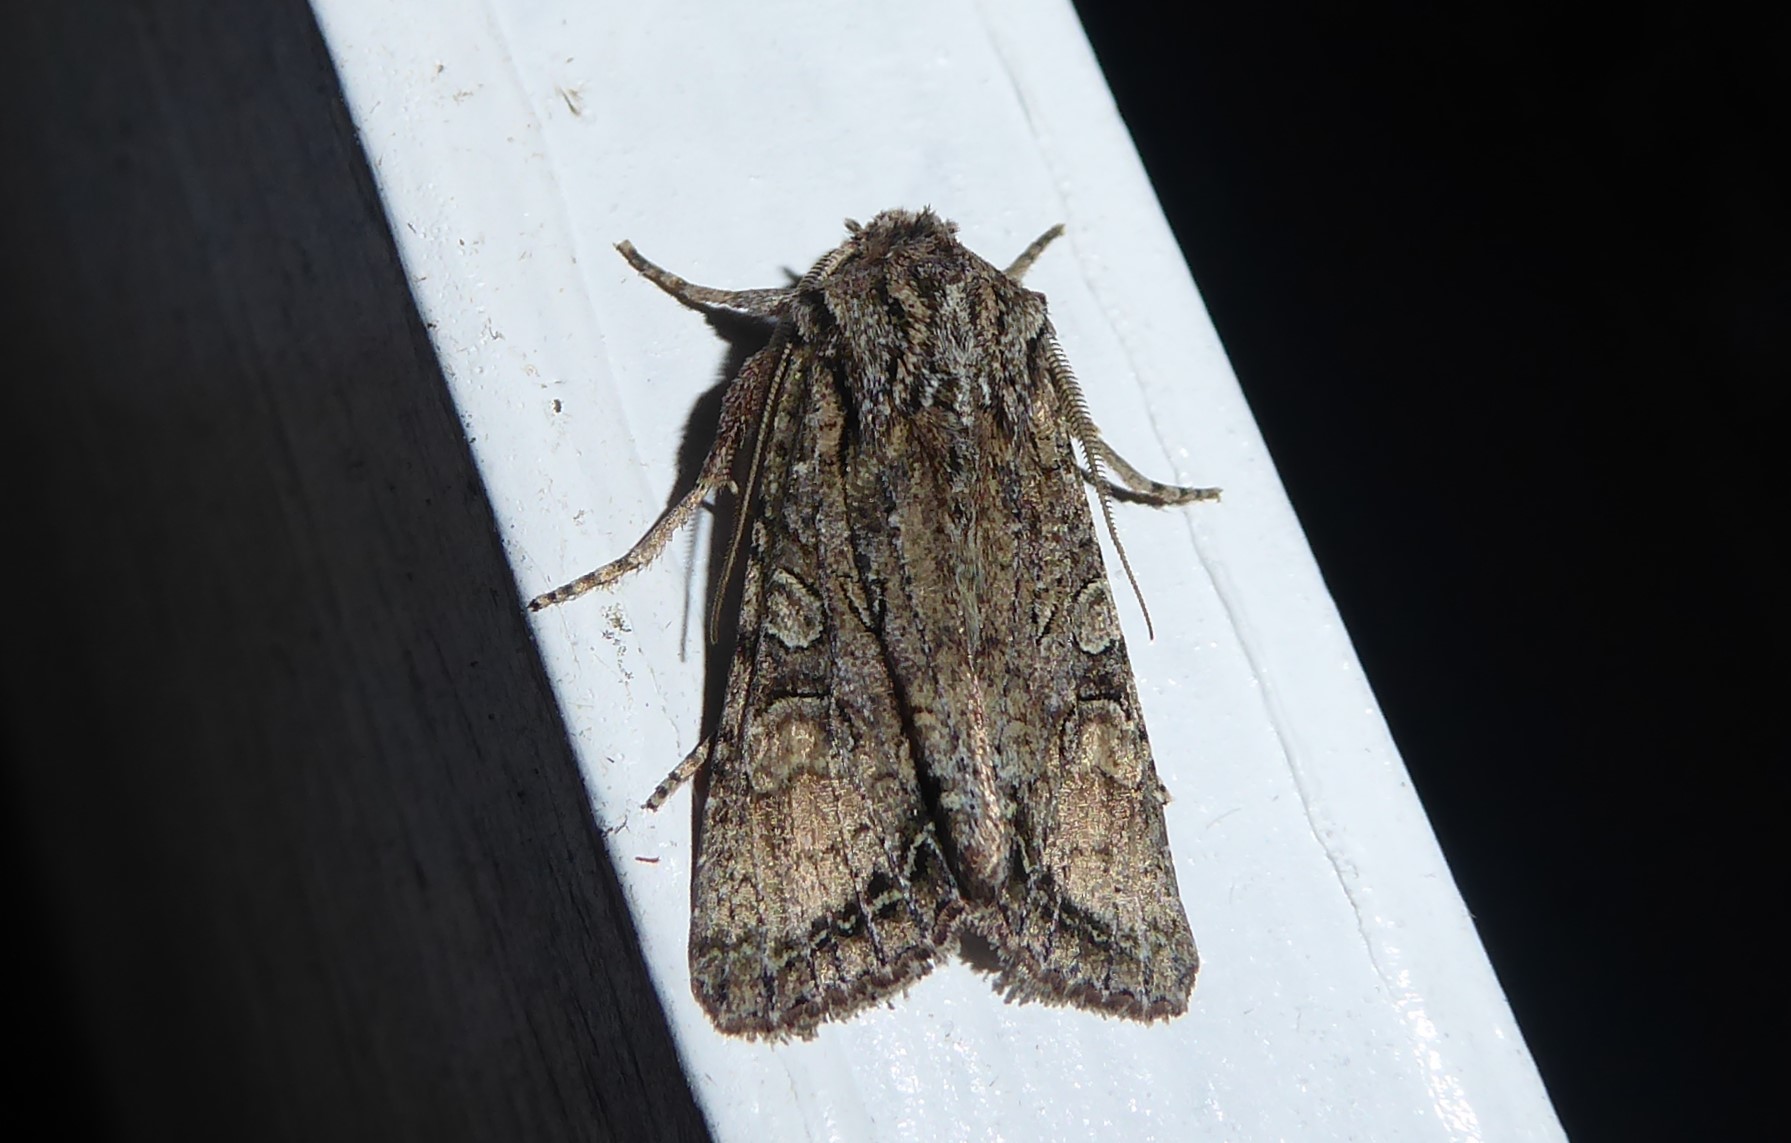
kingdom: Animalia
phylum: Arthropoda
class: Insecta
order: Lepidoptera
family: Noctuidae
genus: Ichneutica
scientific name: Ichneutica mutans
